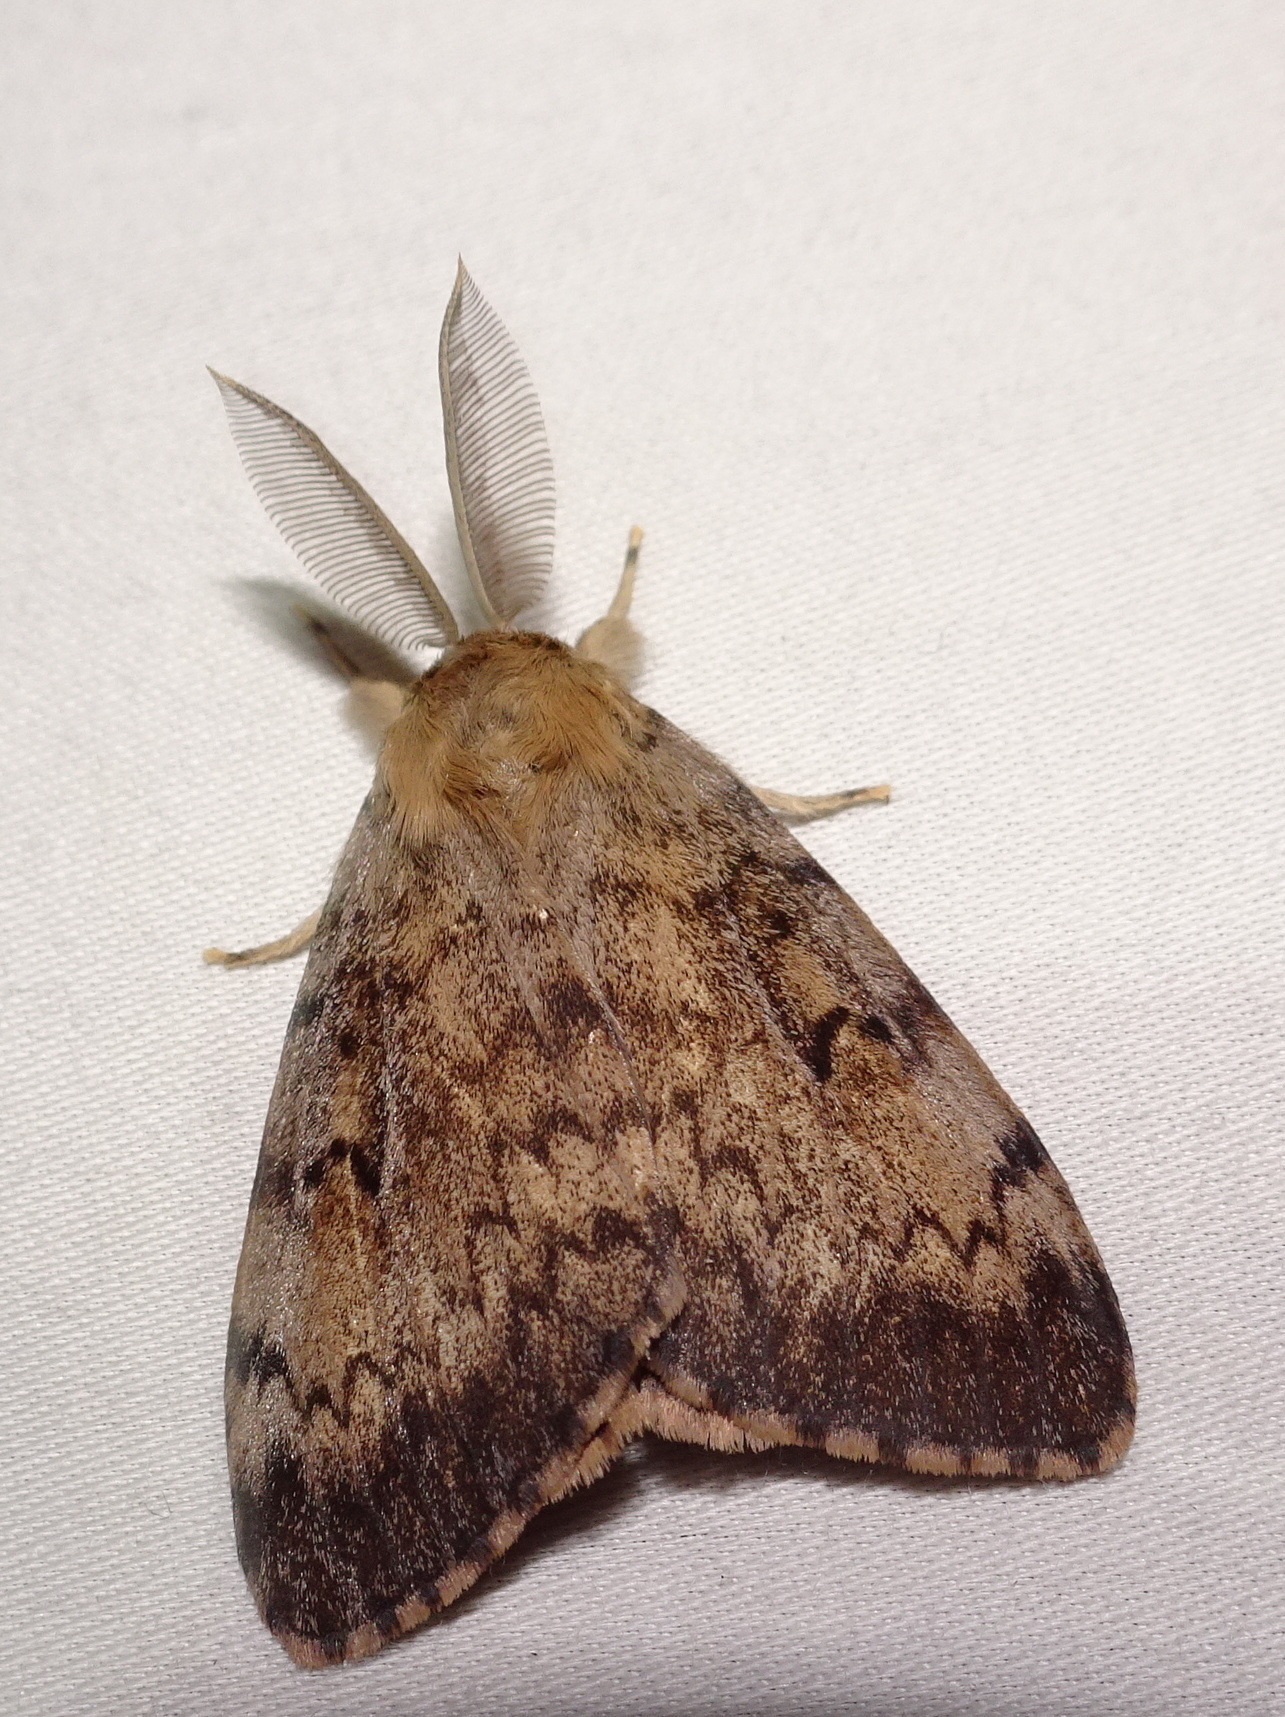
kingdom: Animalia
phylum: Arthropoda
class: Insecta
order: Lepidoptera
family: Erebidae
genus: Lymantria
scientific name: Lymantria dispar
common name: Gypsy moth
